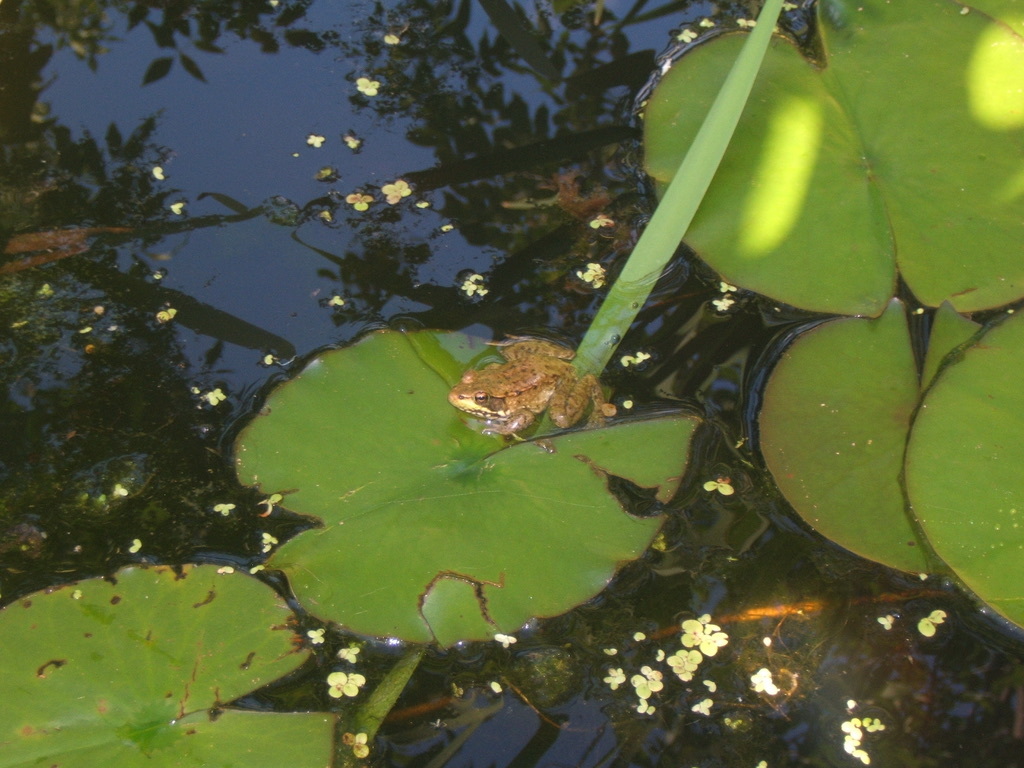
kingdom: Animalia
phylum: Chordata
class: Amphibia
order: Anura
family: Ranidae
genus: Lithobates
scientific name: Lithobates clamitans
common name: Green frog
